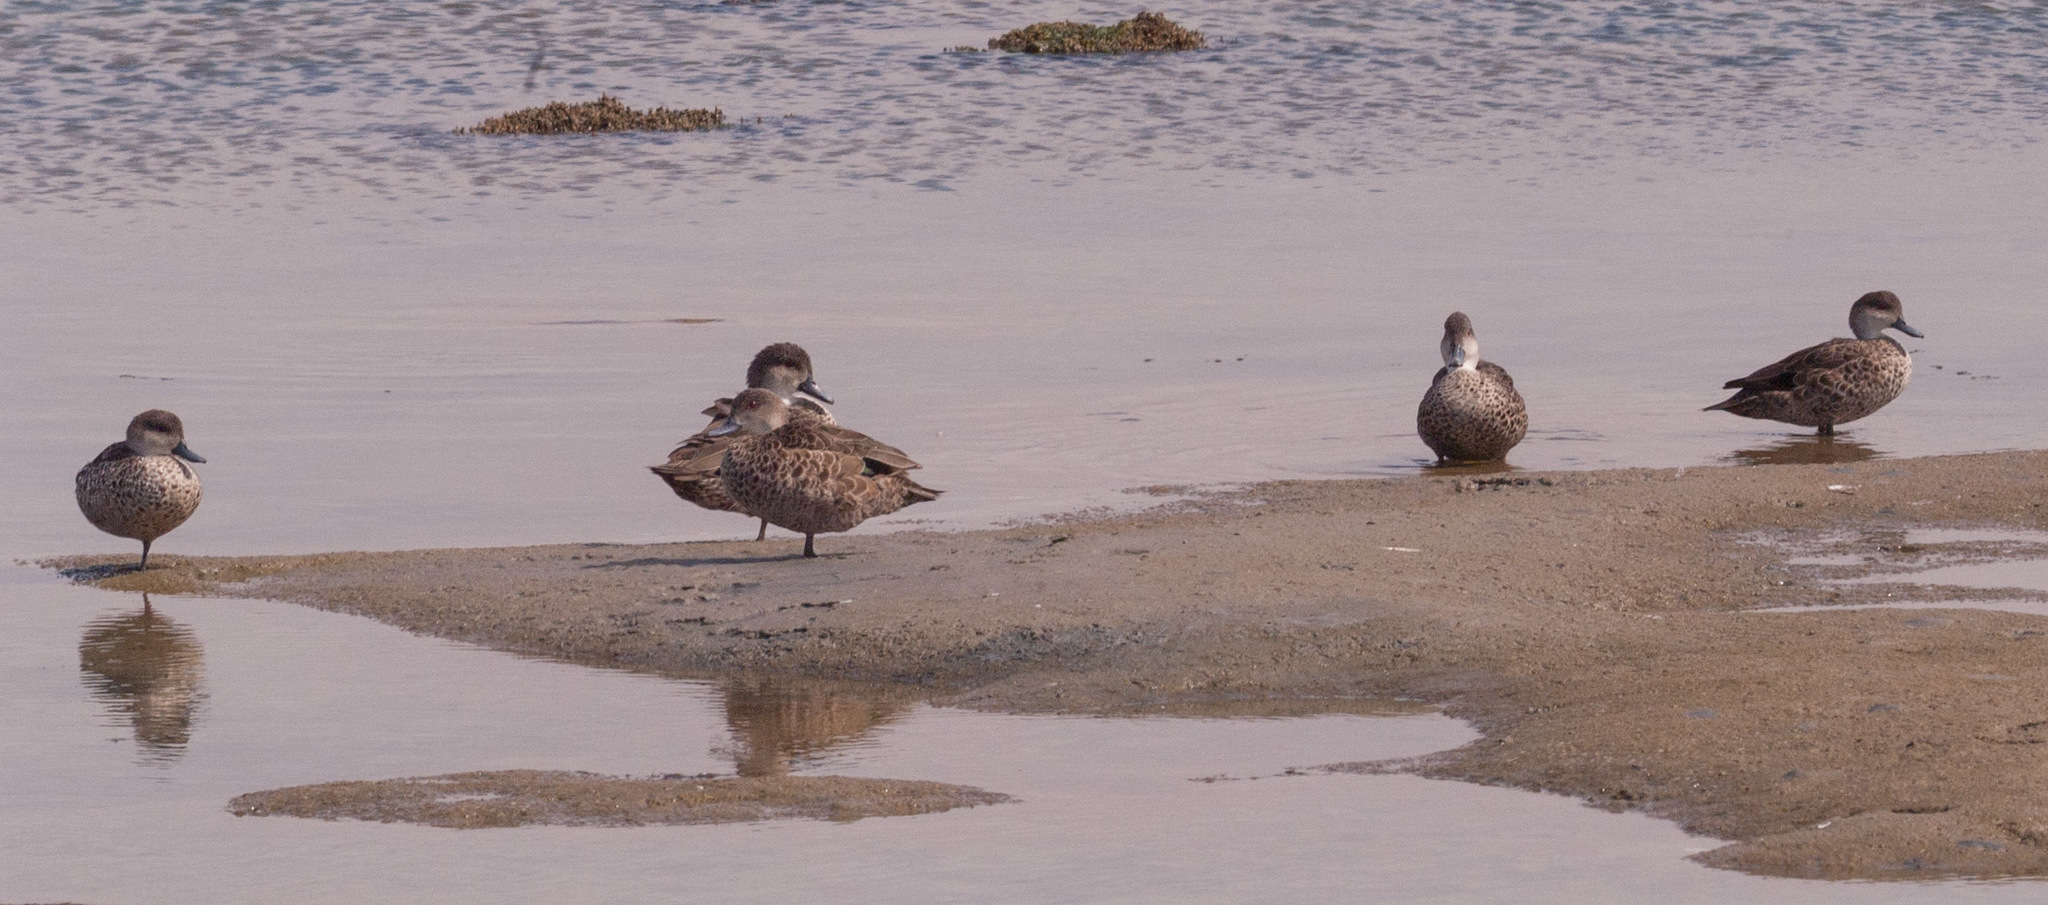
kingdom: Animalia
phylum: Chordata
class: Aves
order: Anseriformes
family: Anatidae
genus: Anas
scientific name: Anas gracilis
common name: Grey teal
